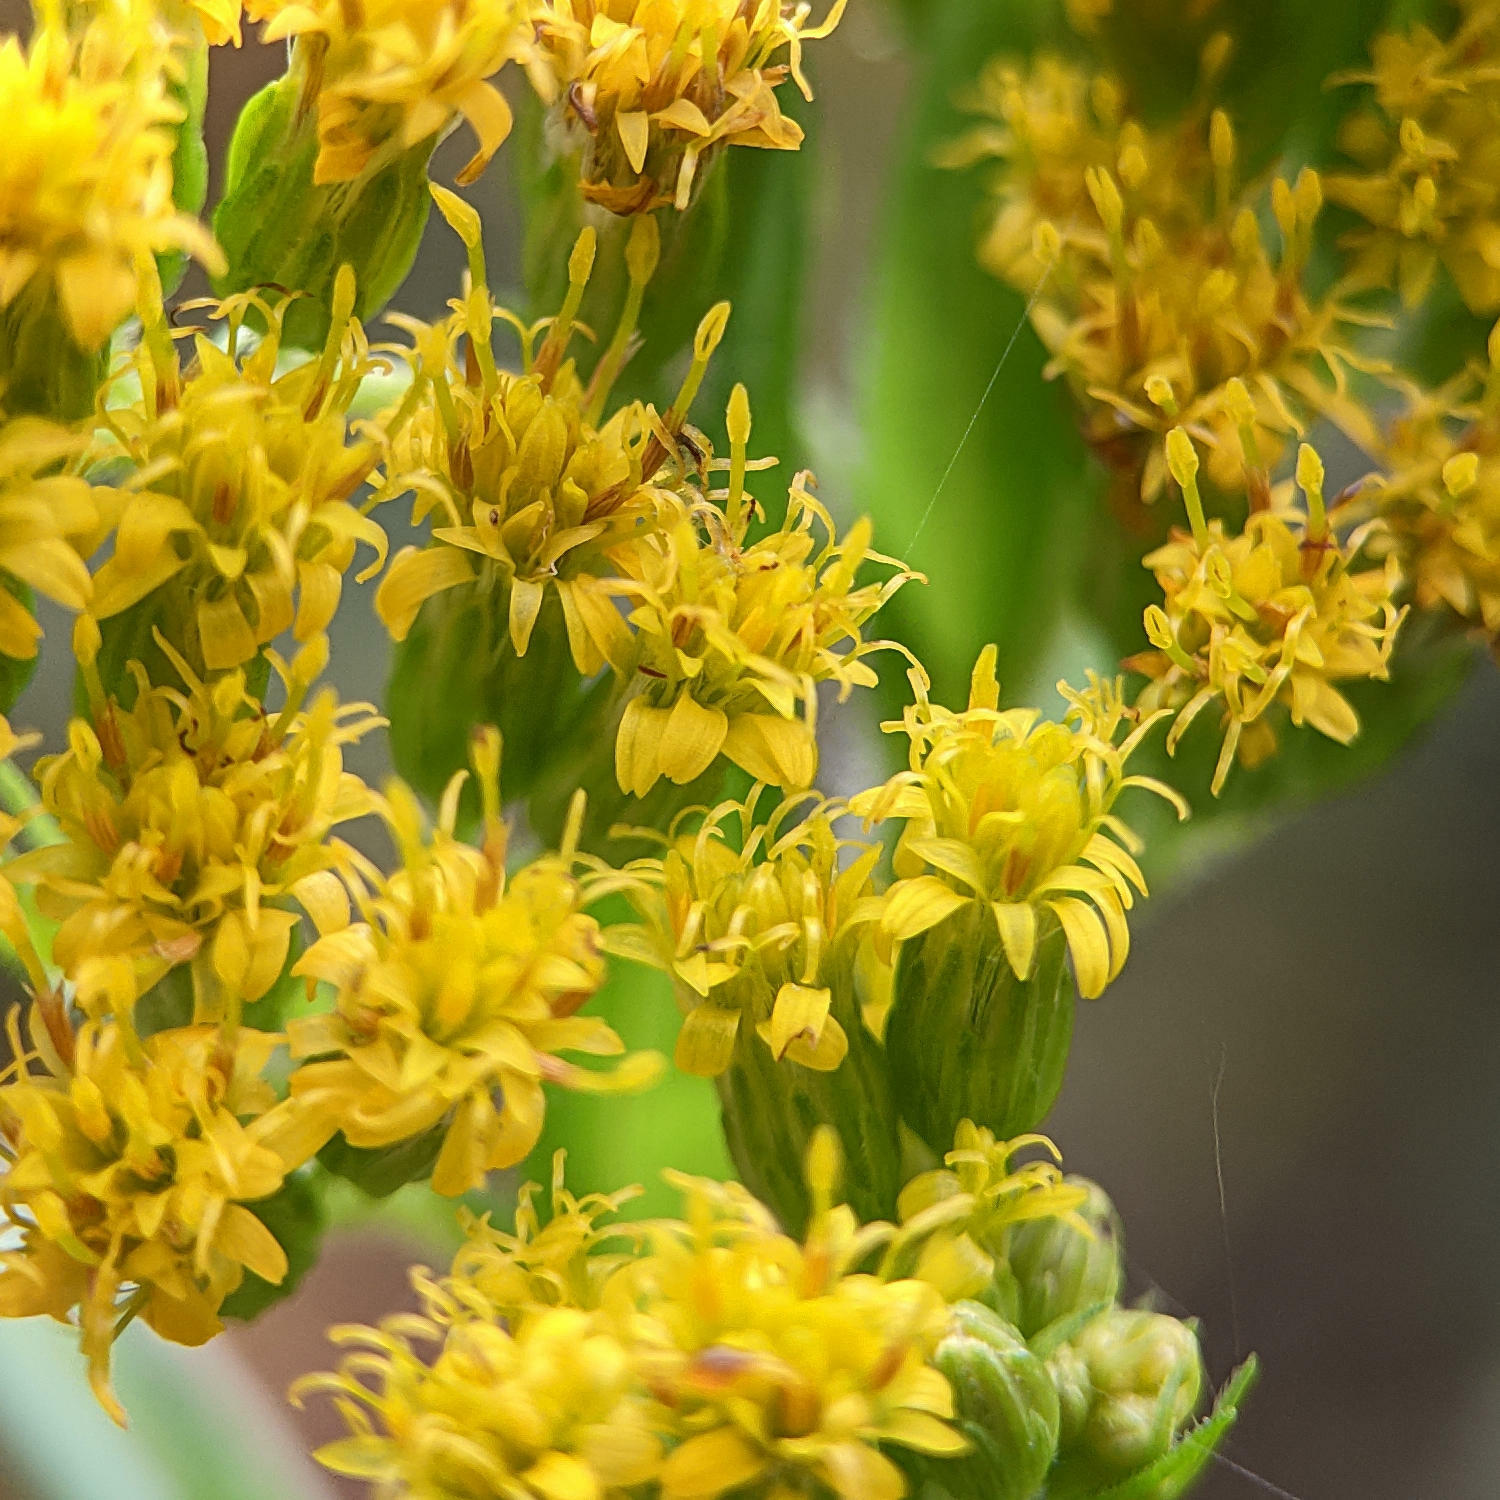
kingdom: Plantae
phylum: Tracheophyta
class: Magnoliopsida
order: Asterales
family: Asteraceae
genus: Solidago
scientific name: Solidago gigantea
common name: Giant goldenrod
